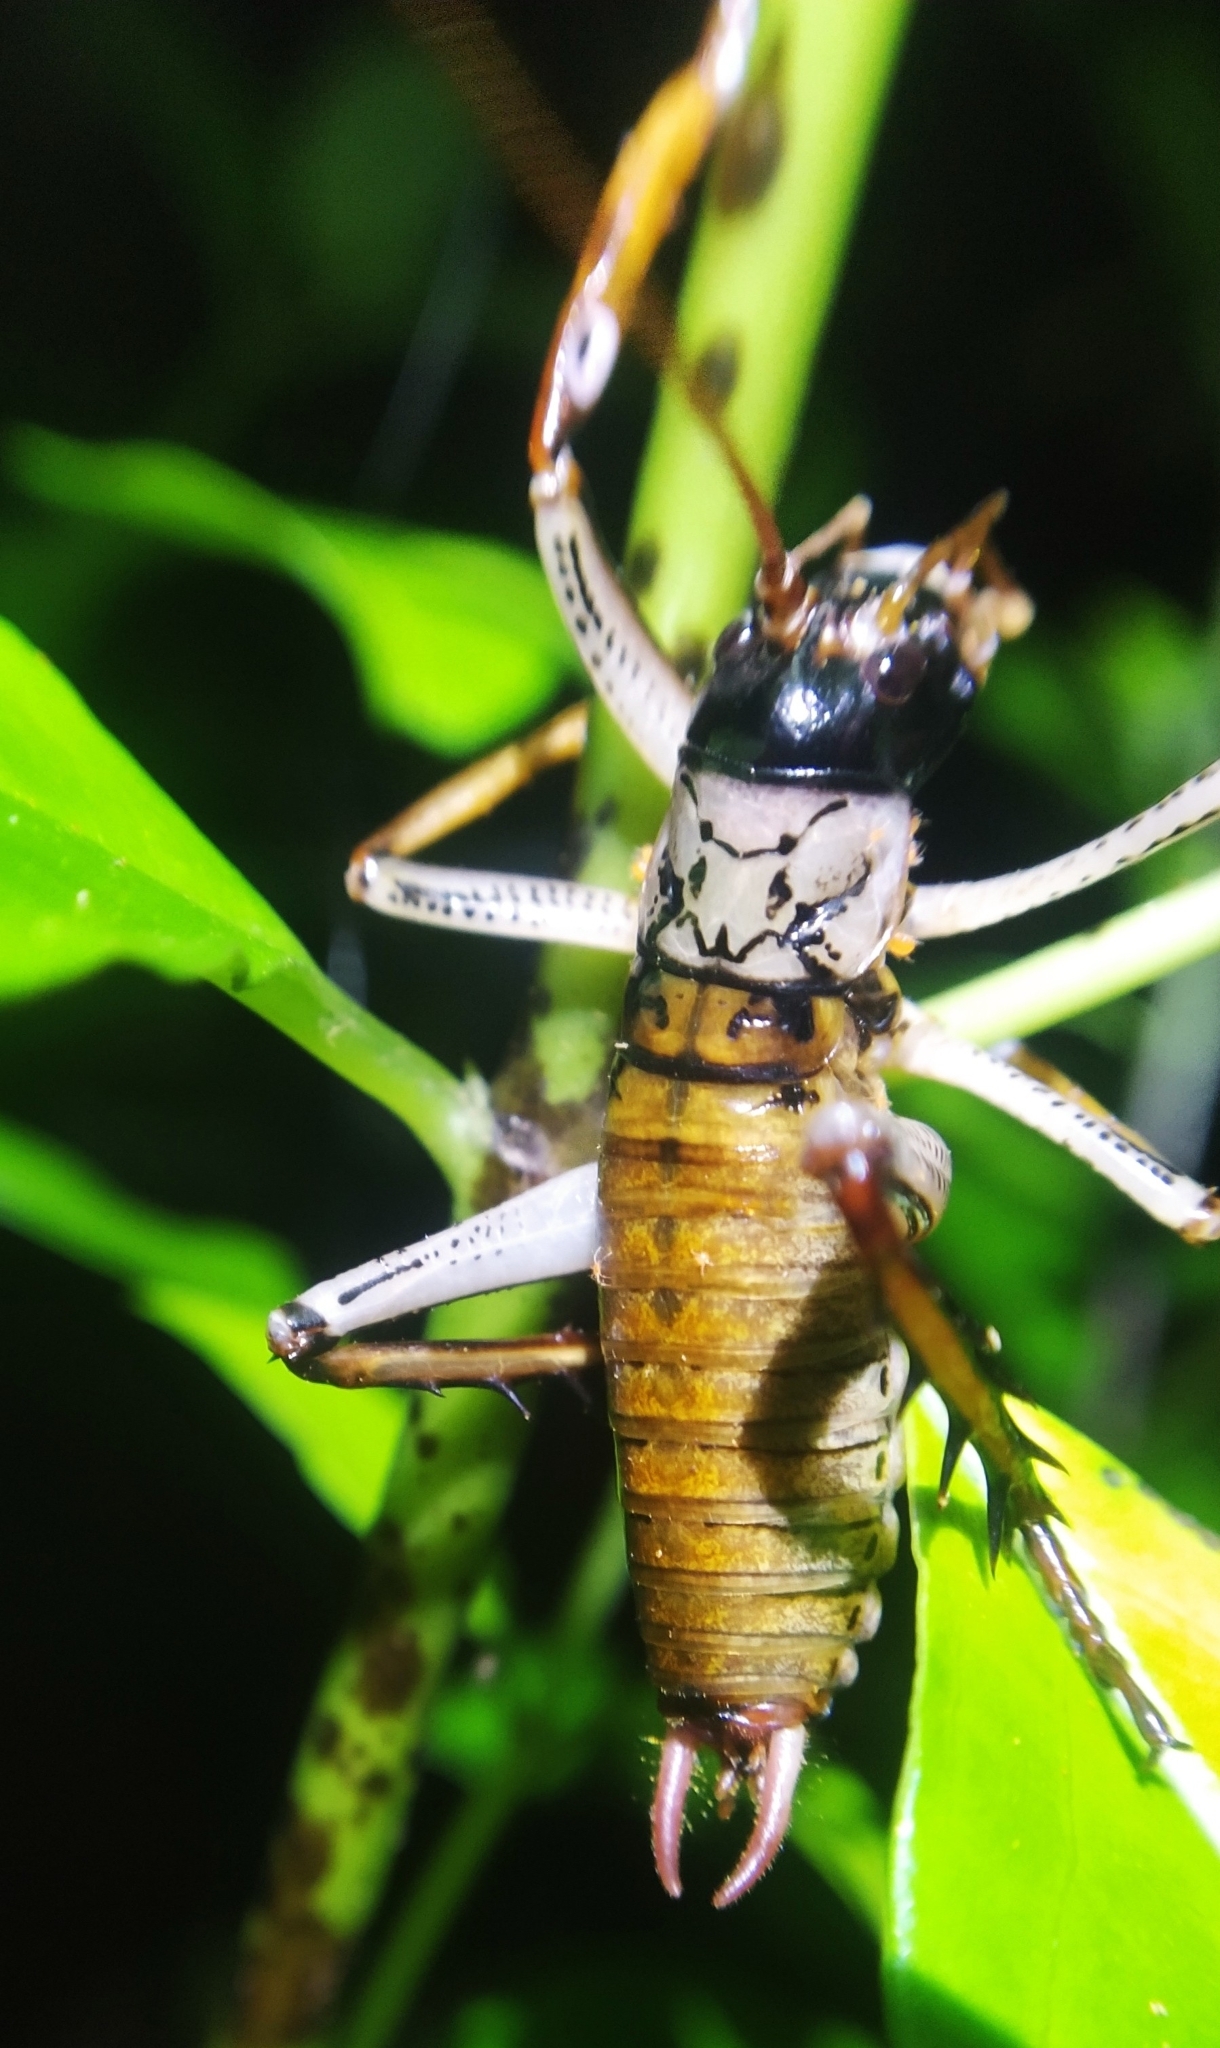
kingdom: Animalia
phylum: Arthropoda
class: Insecta
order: Orthoptera
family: Anostostomatidae
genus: Hemideina
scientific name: Hemideina thoracica
